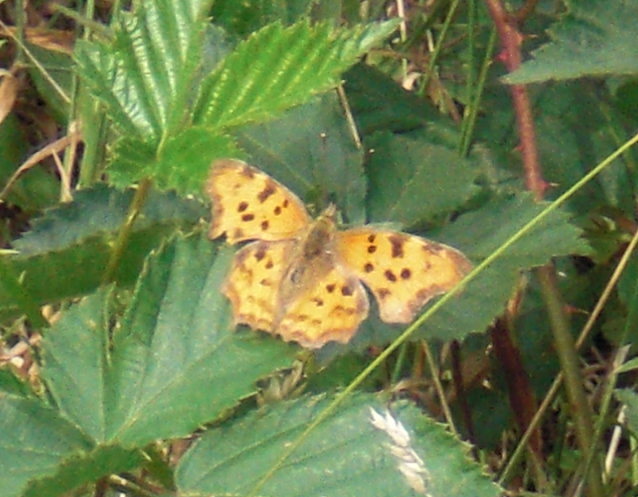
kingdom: Animalia
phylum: Arthropoda
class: Insecta
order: Lepidoptera
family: Nymphalidae
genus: Polygonia
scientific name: Polygonia c-album
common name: Comma
